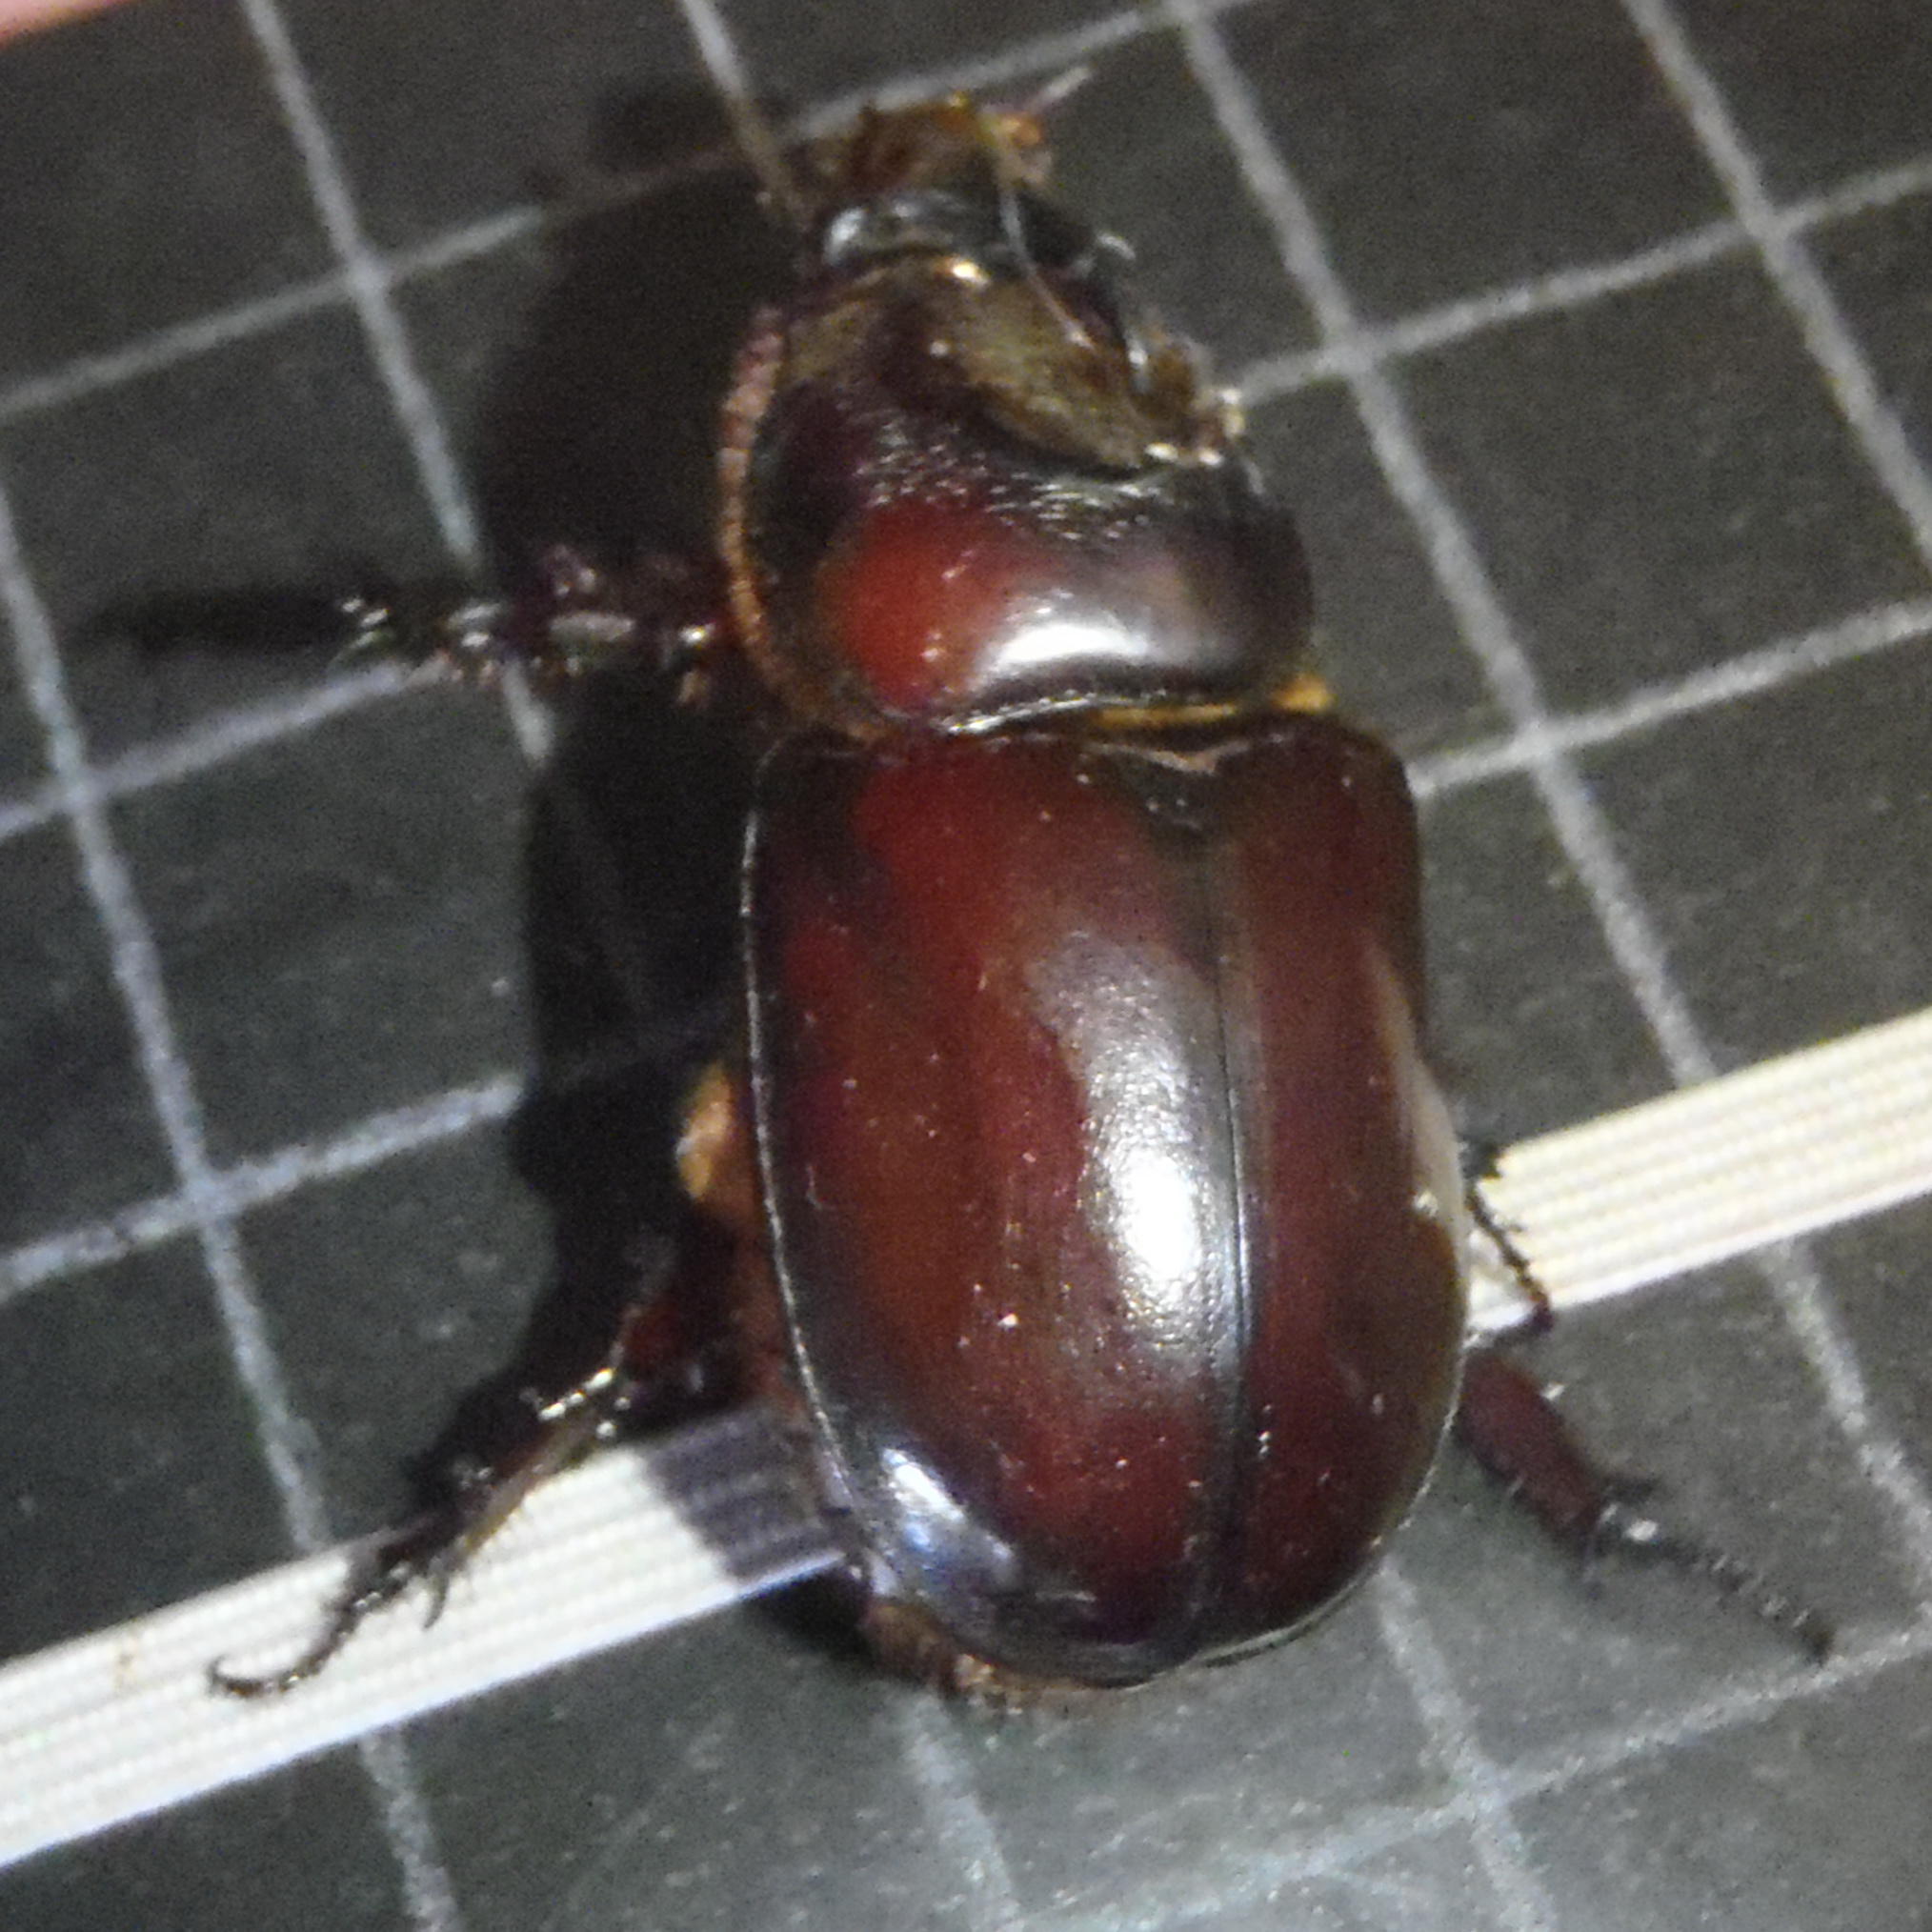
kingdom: Animalia
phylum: Arthropoda
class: Insecta
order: Coleoptera
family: Scarabaeidae
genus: Oryctes
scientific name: Oryctes boas
